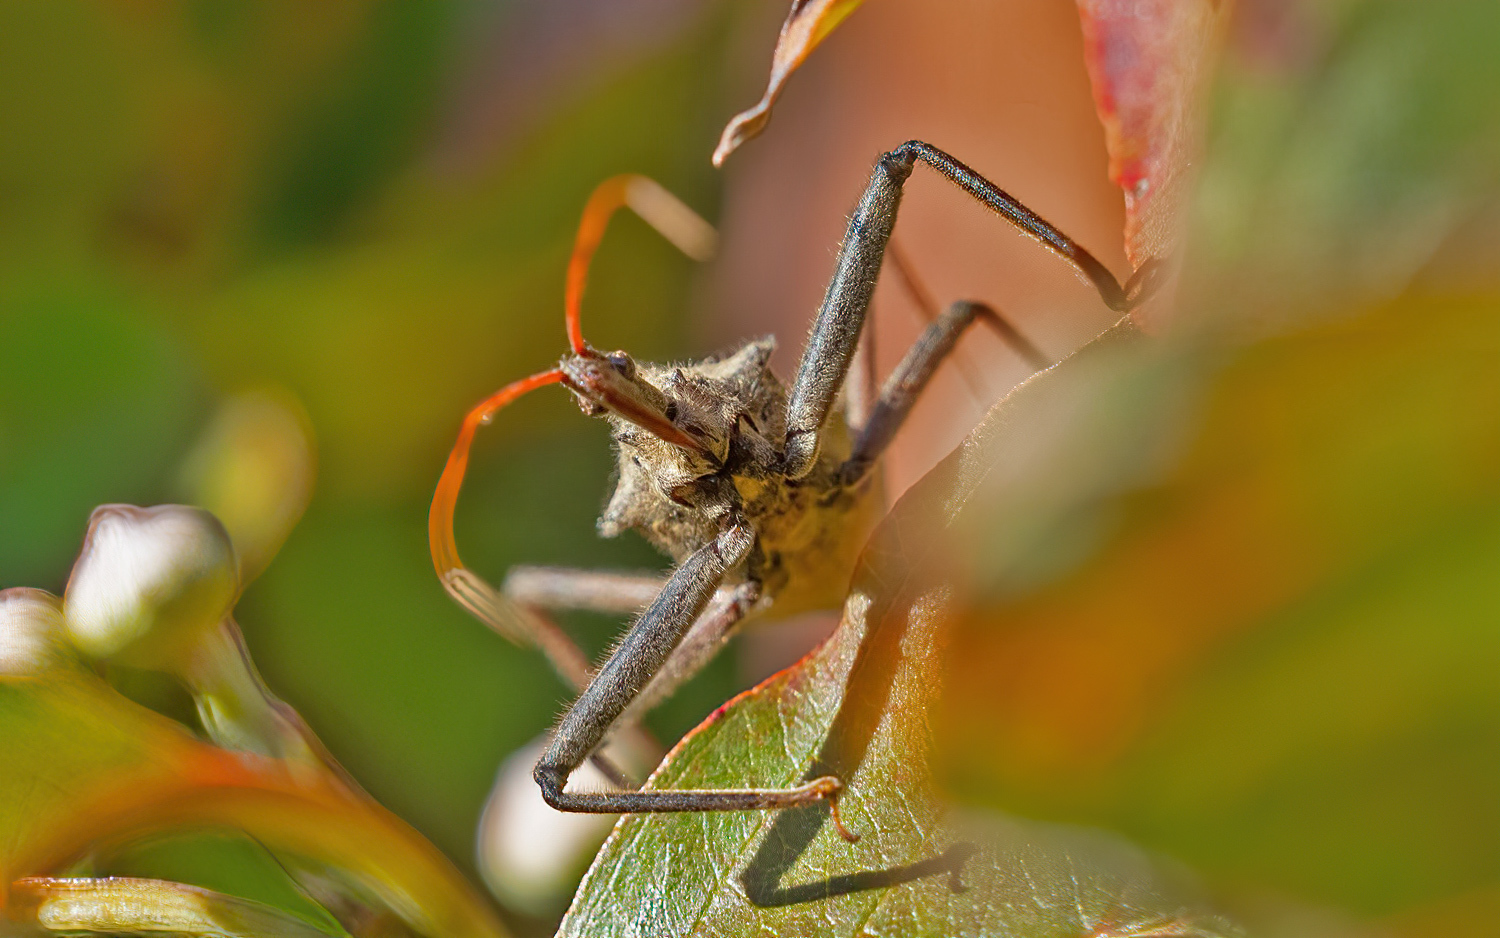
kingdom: Animalia
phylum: Arthropoda
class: Insecta
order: Hemiptera
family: Reduviidae
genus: Arilus
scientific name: Arilus cristatus
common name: North american wheel bug
